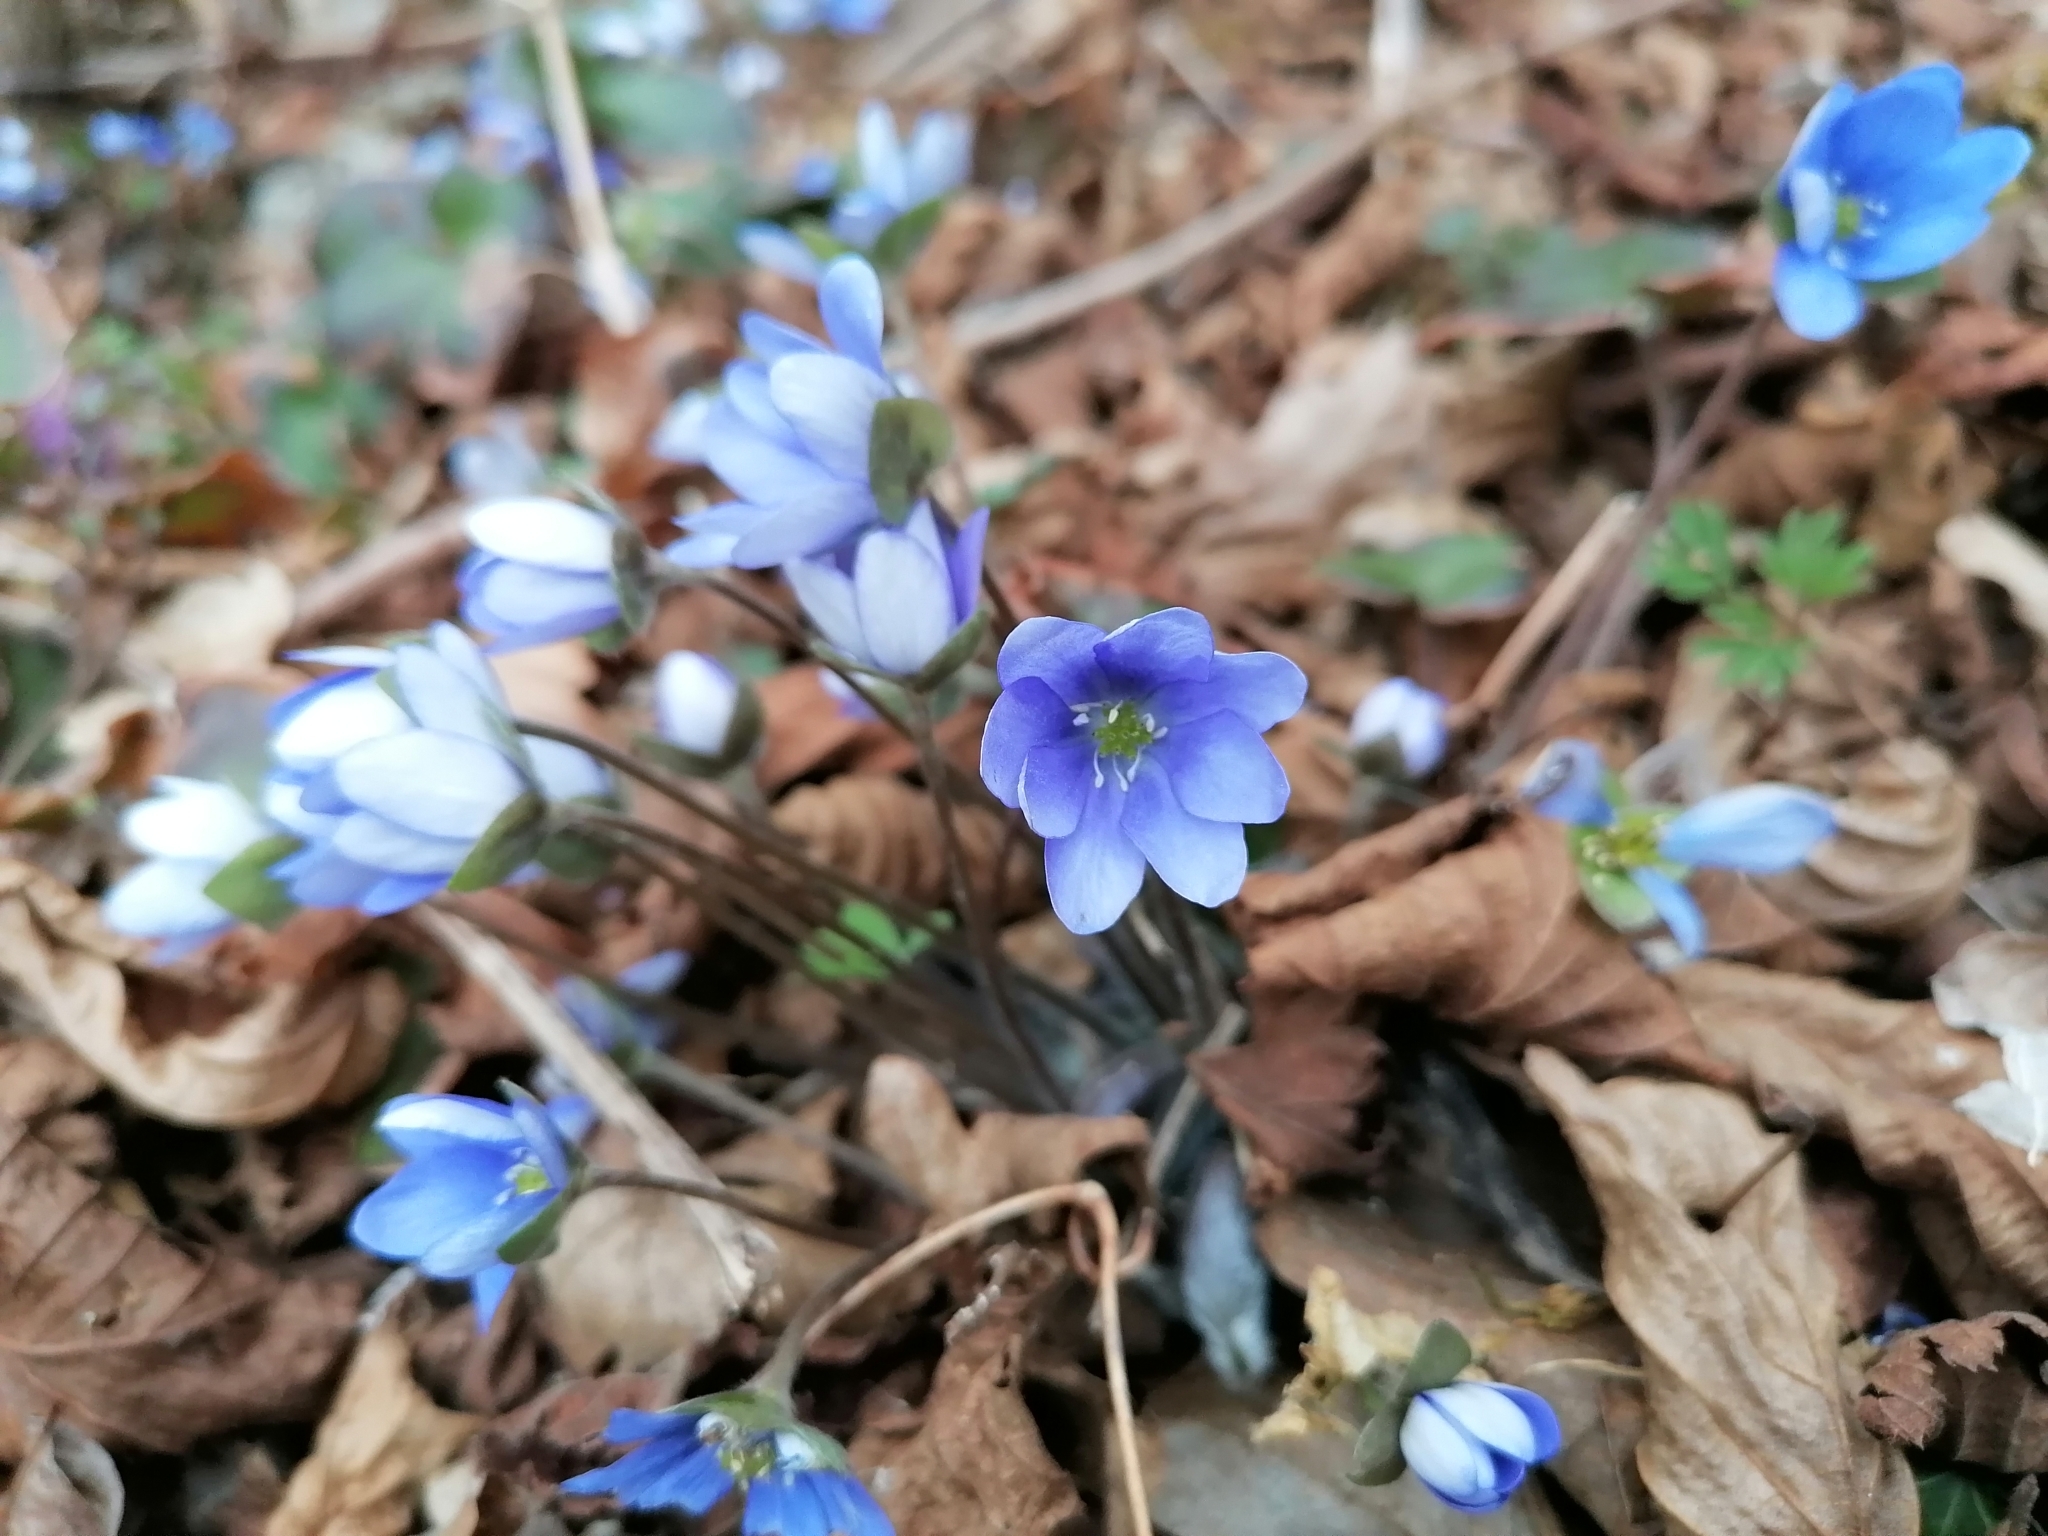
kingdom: Plantae
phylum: Tracheophyta
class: Magnoliopsida
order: Ranunculales
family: Ranunculaceae
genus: Hepatica
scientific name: Hepatica nobilis
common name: Liverleaf
